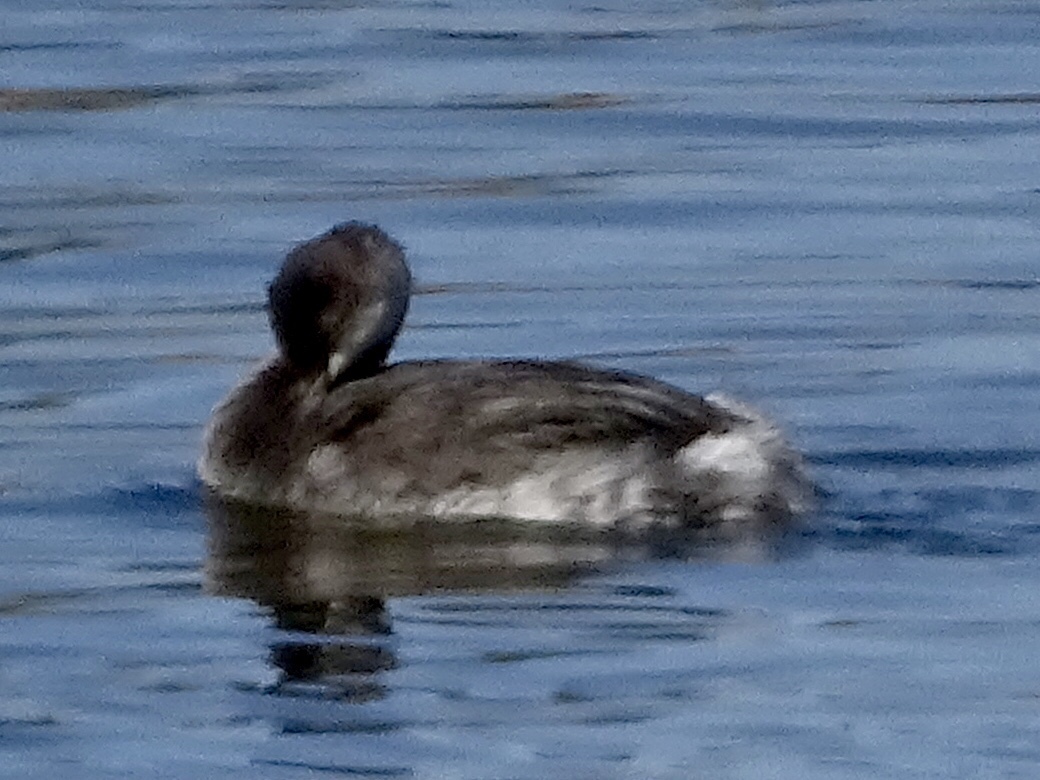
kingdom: Animalia
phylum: Chordata
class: Aves
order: Podicipediformes
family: Podicipedidae
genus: Podilymbus
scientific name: Podilymbus podiceps
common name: Pied-billed grebe
